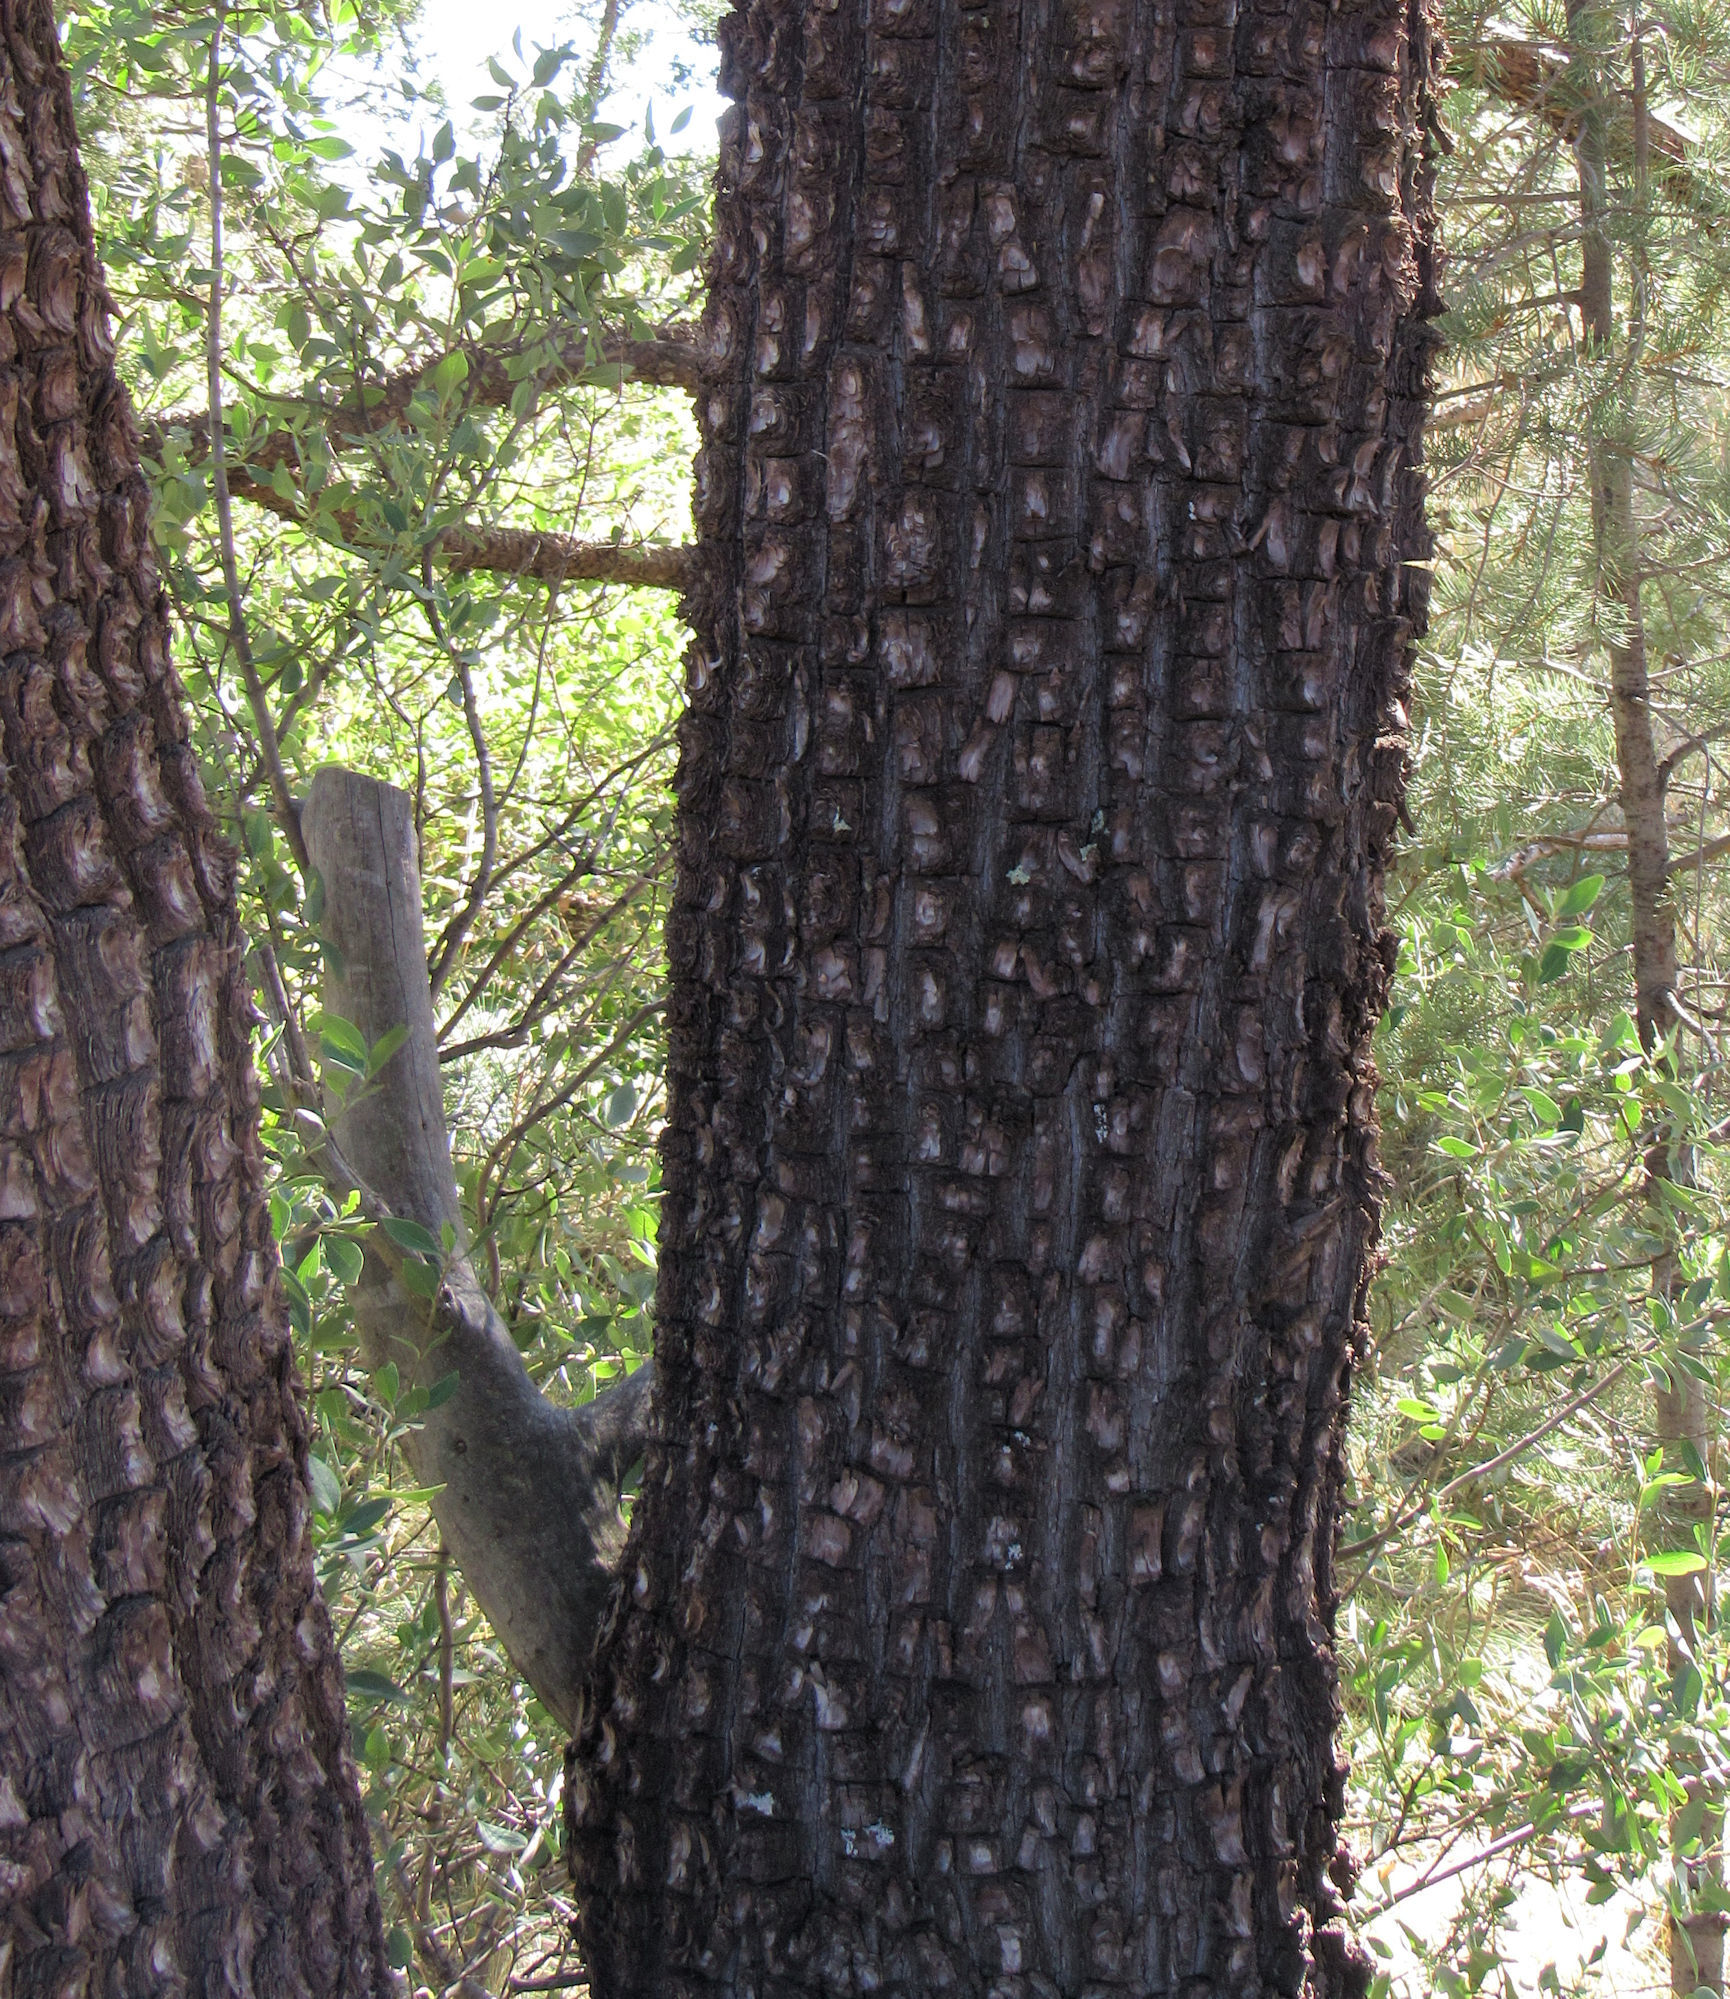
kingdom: Plantae
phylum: Tracheophyta
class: Pinopsida
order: Pinales
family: Cupressaceae
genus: Juniperus
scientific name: Juniperus deppeana
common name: Alligator juniper
